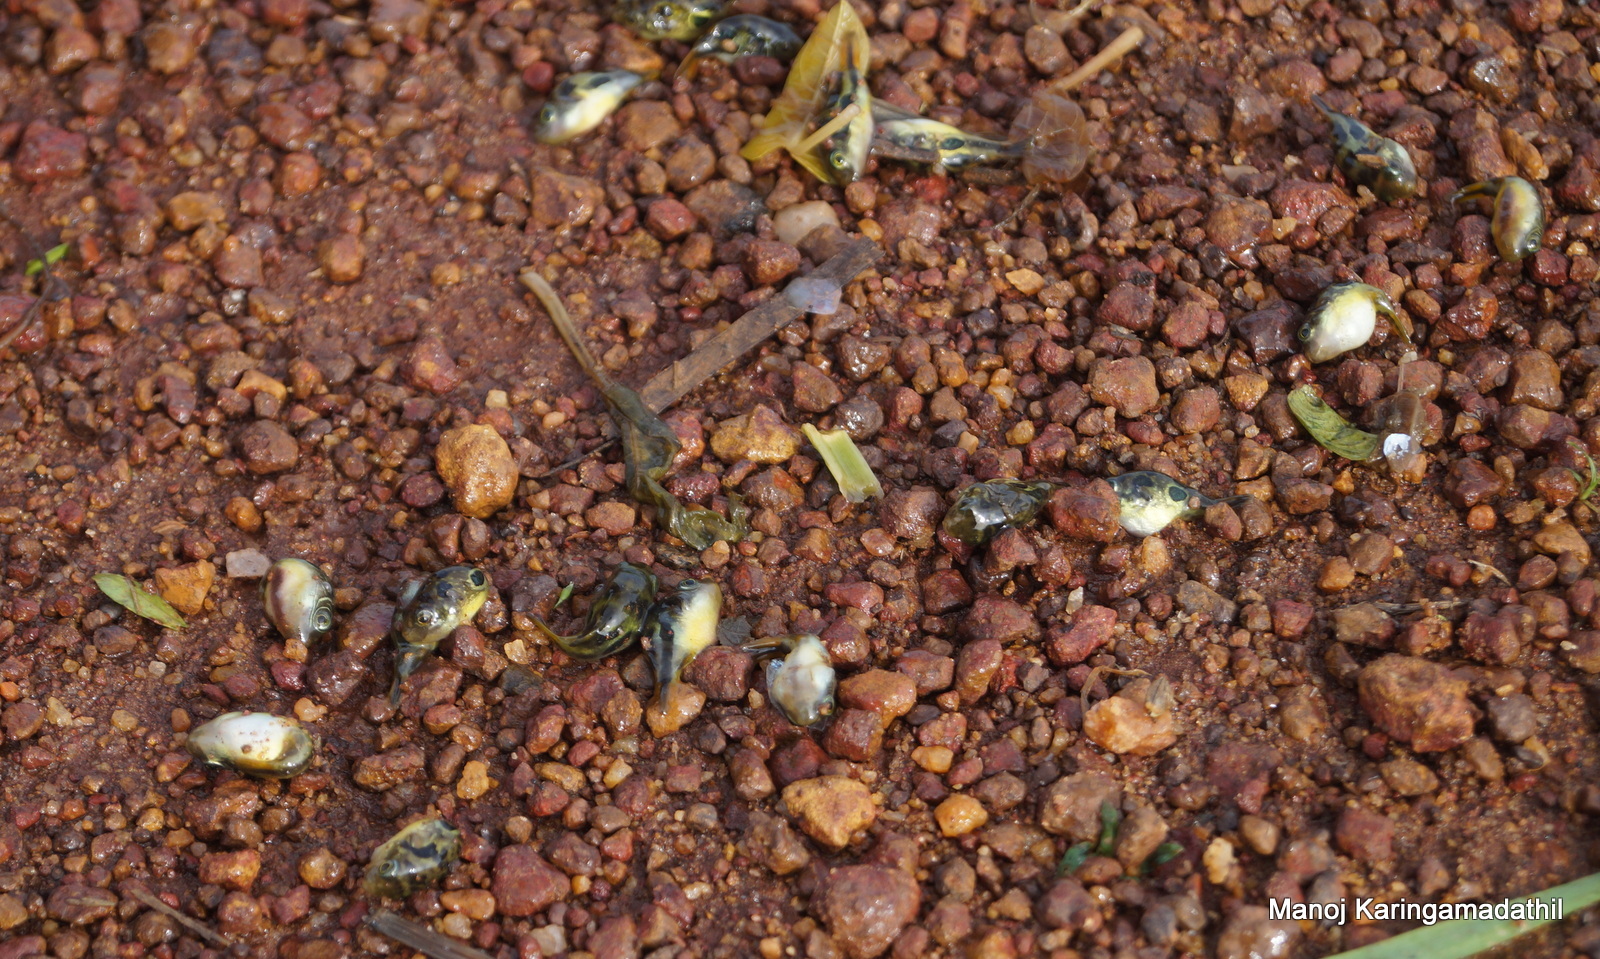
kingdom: Animalia
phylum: Chordata
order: Tetraodontiformes
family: Tetraodontidae
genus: Carinotetraodon
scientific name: Carinotetraodon travancoricus
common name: Dwarf indian puffer
